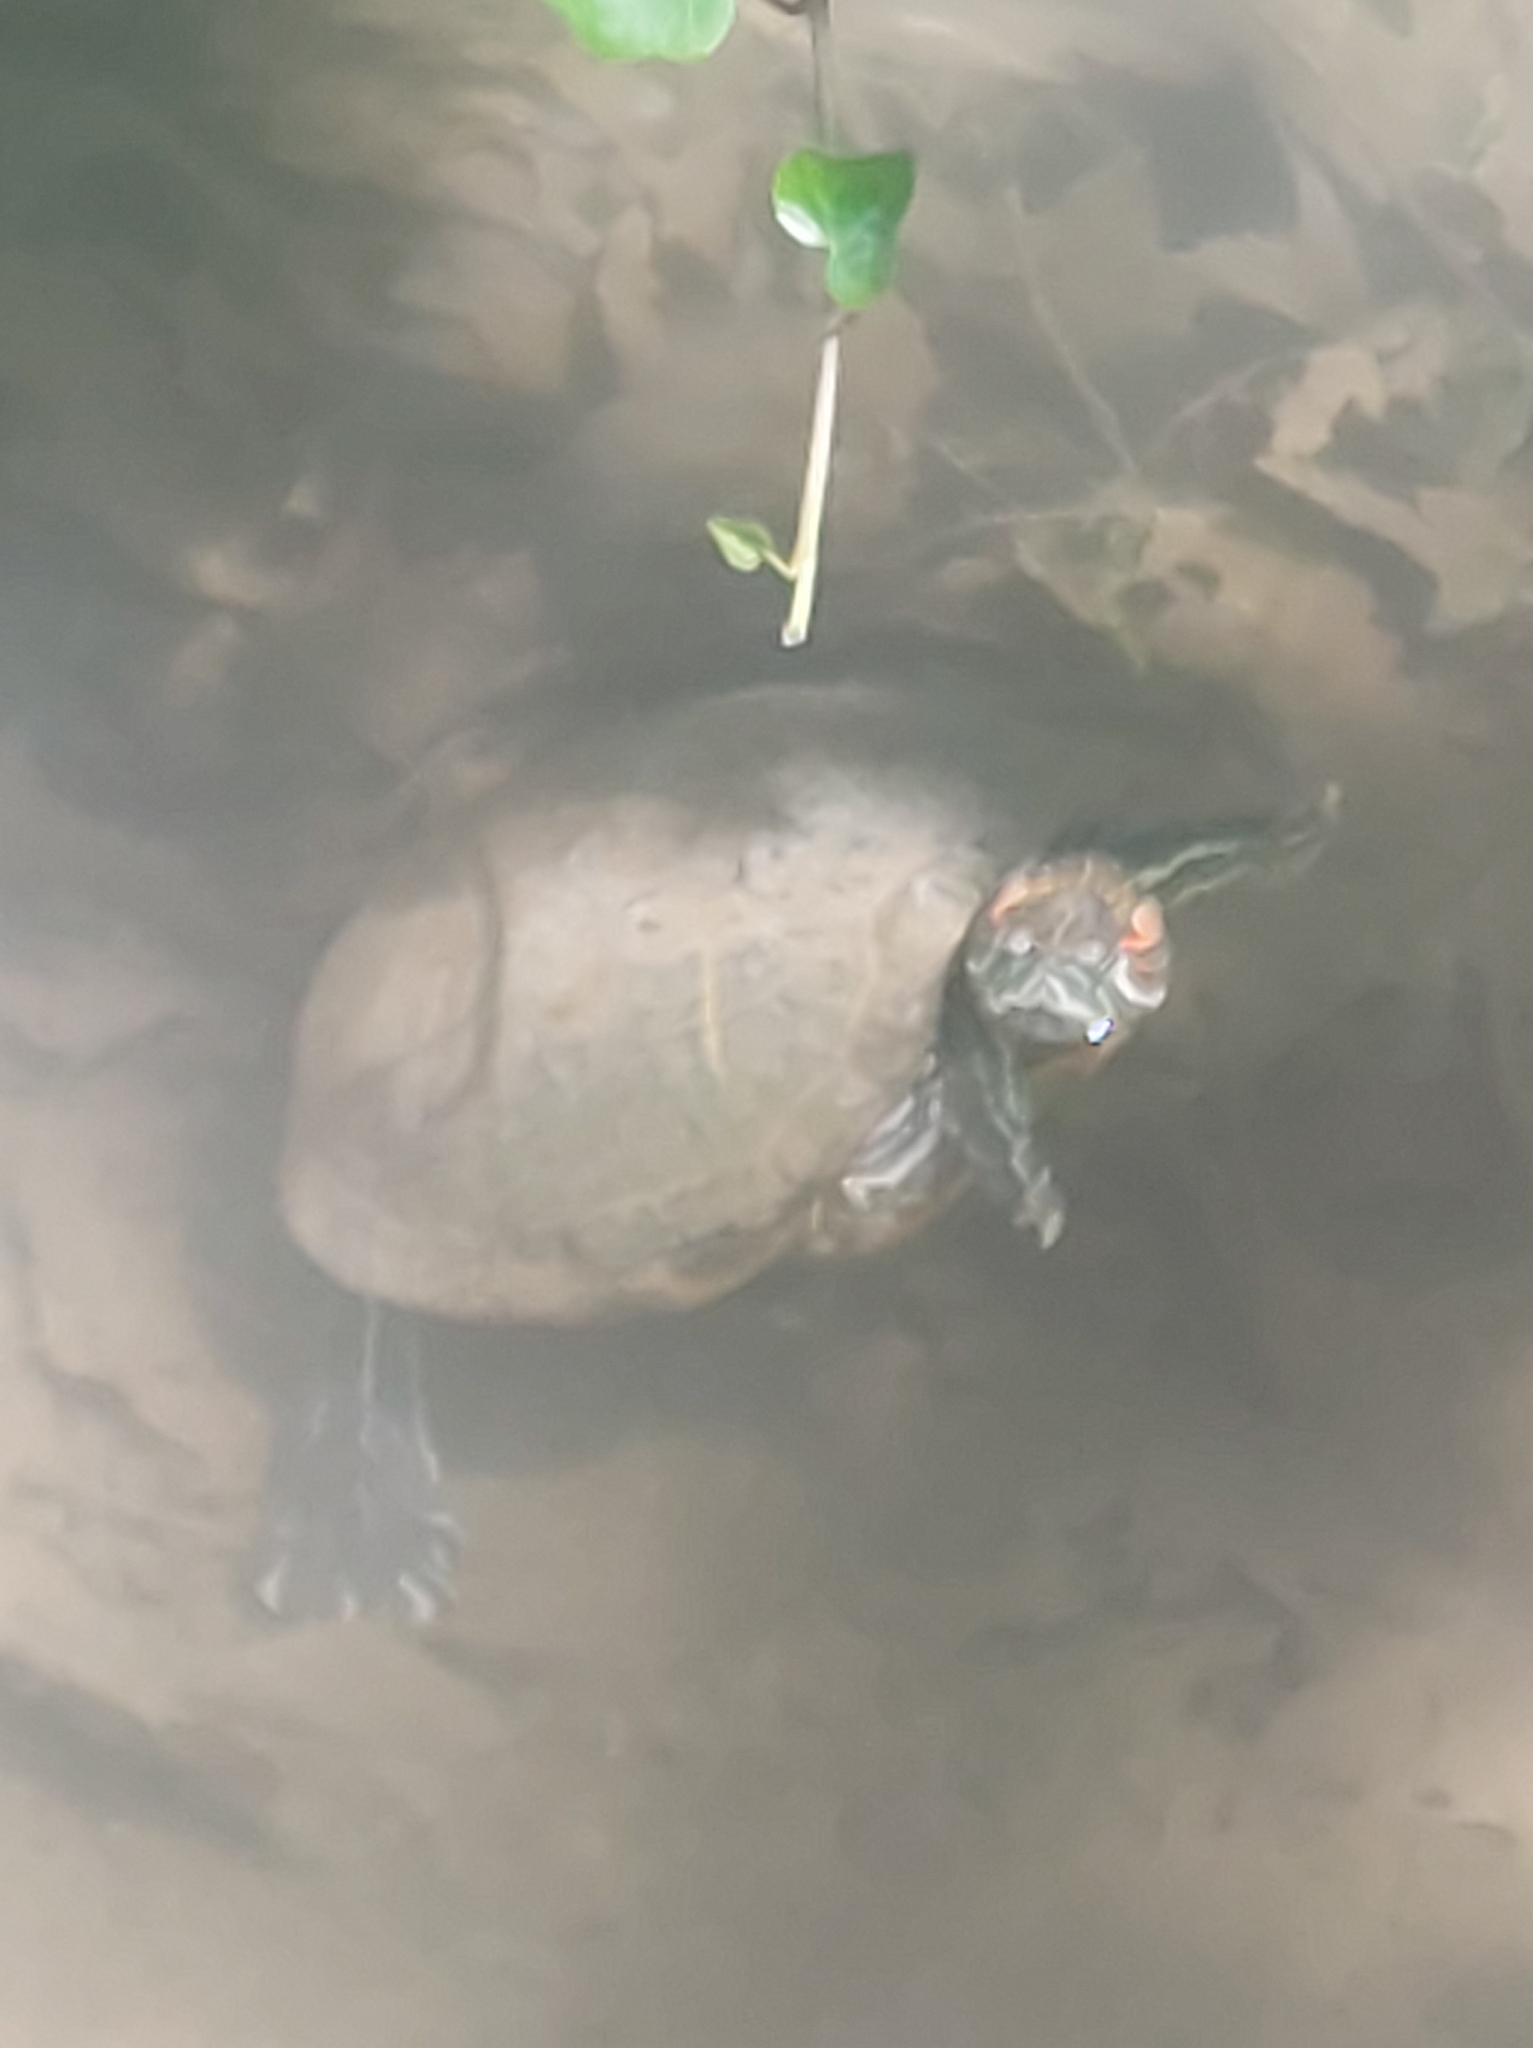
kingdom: Animalia
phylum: Chordata
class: Testudines
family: Emydidae
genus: Trachemys
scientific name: Trachemys scripta
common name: Slider
